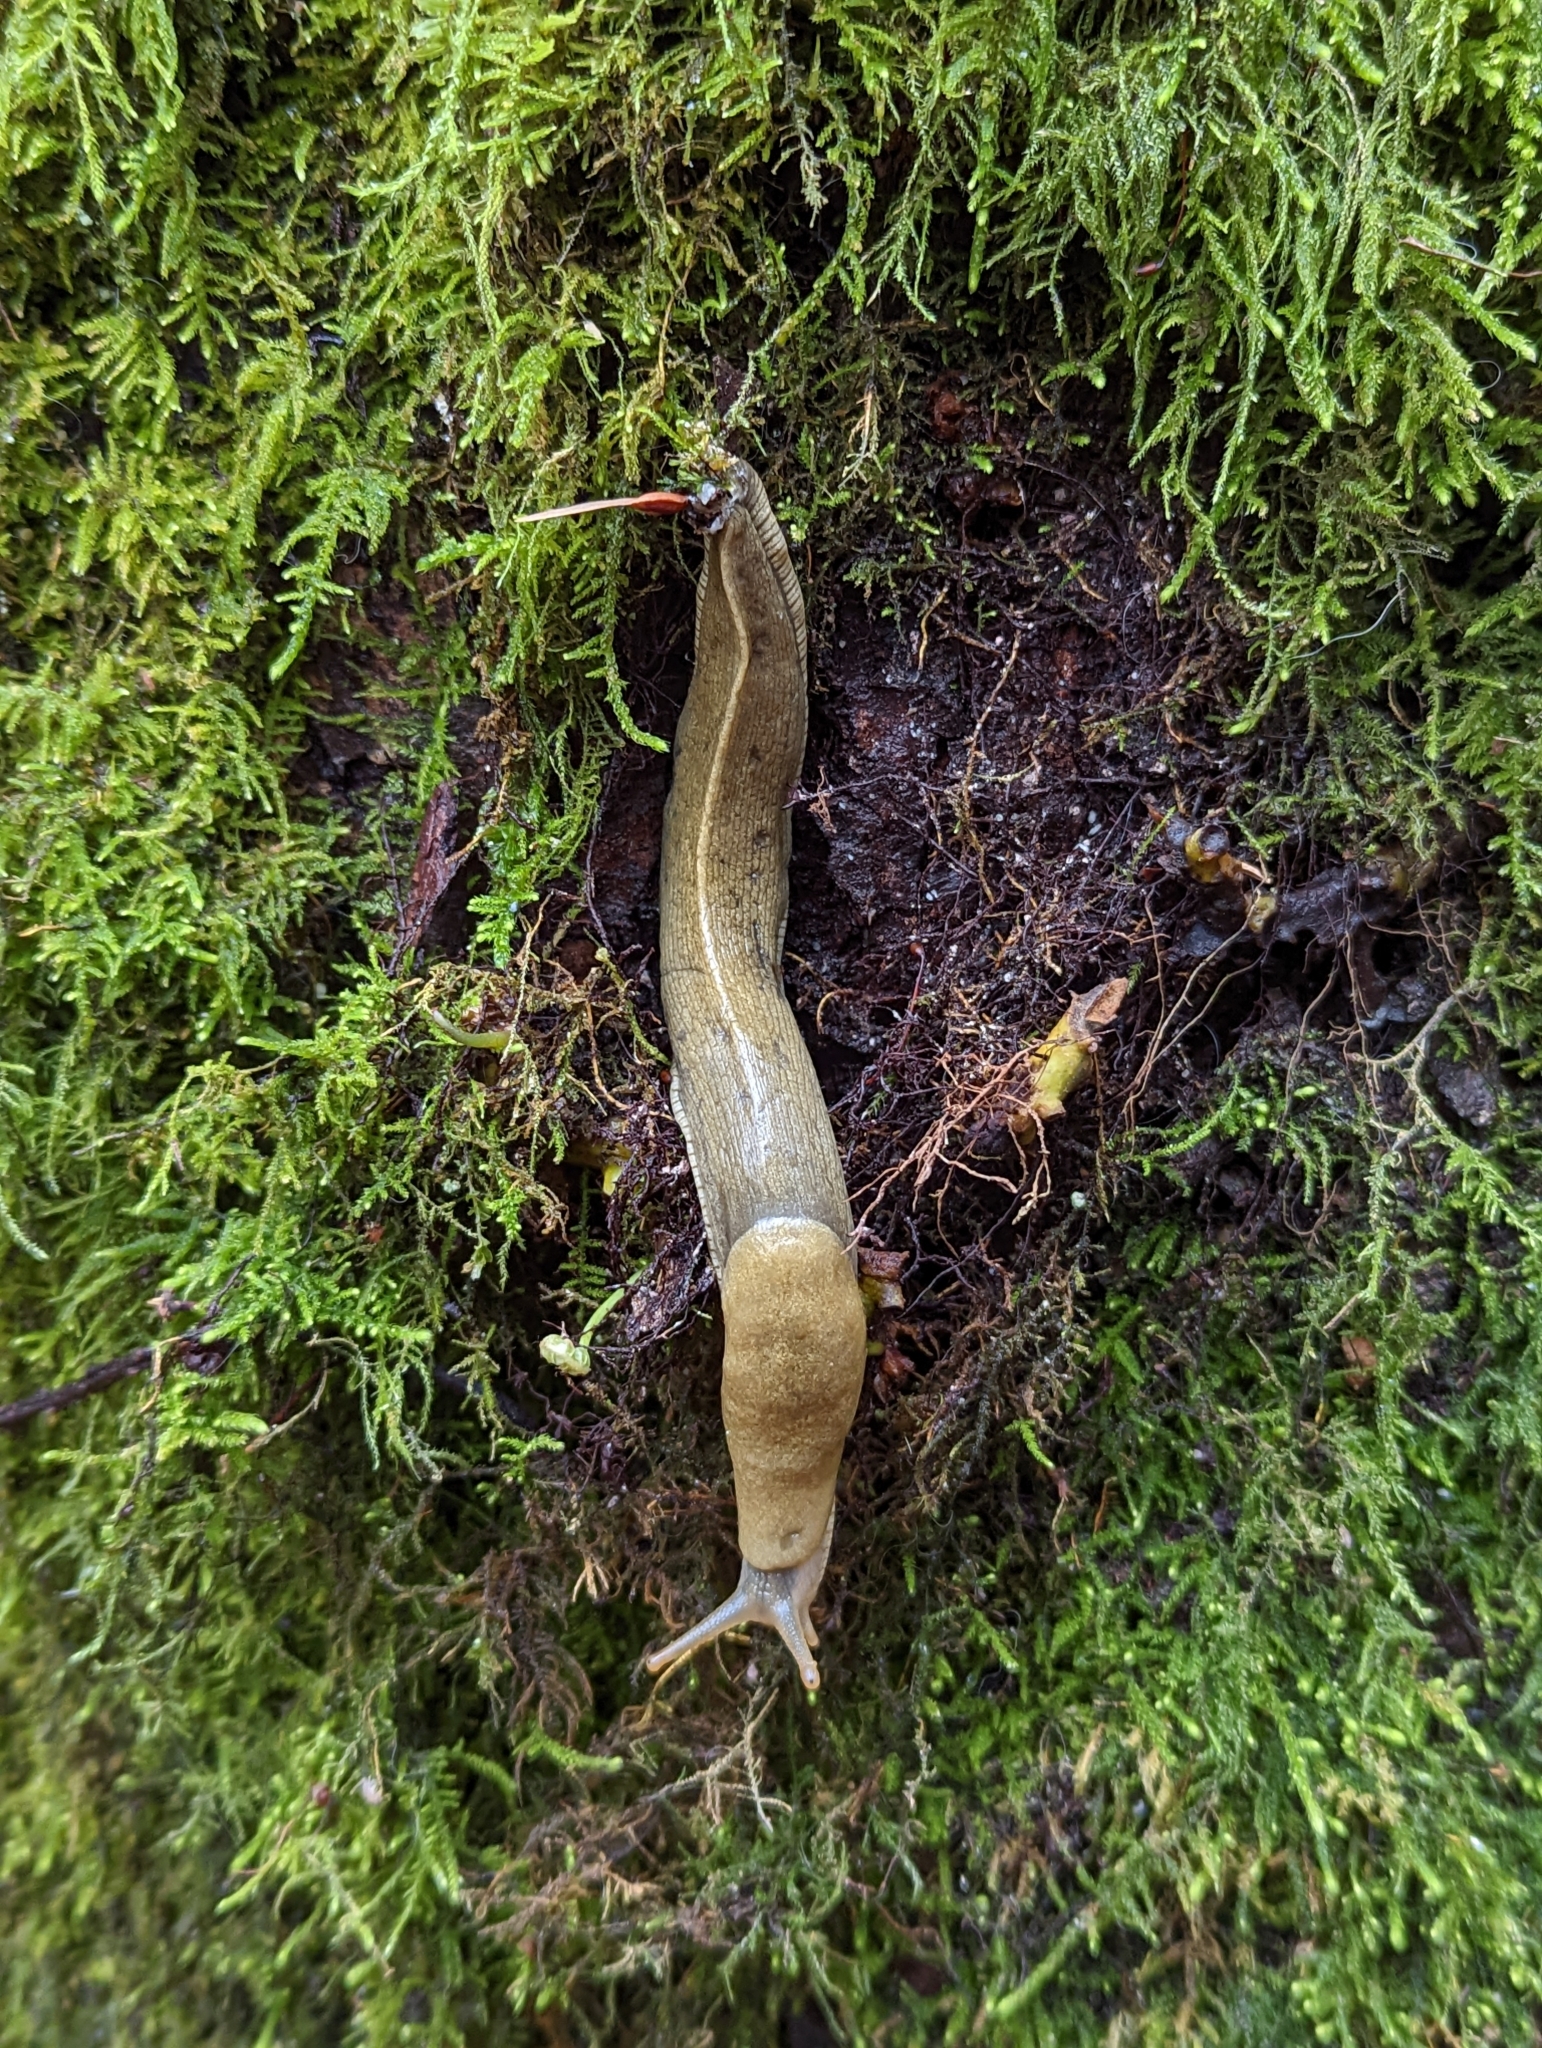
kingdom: Animalia
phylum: Mollusca
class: Gastropoda
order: Stylommatophora
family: Ariolimacidae
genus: Ariolimax
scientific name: Ariolimax columbianus
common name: Pacific banana slug
